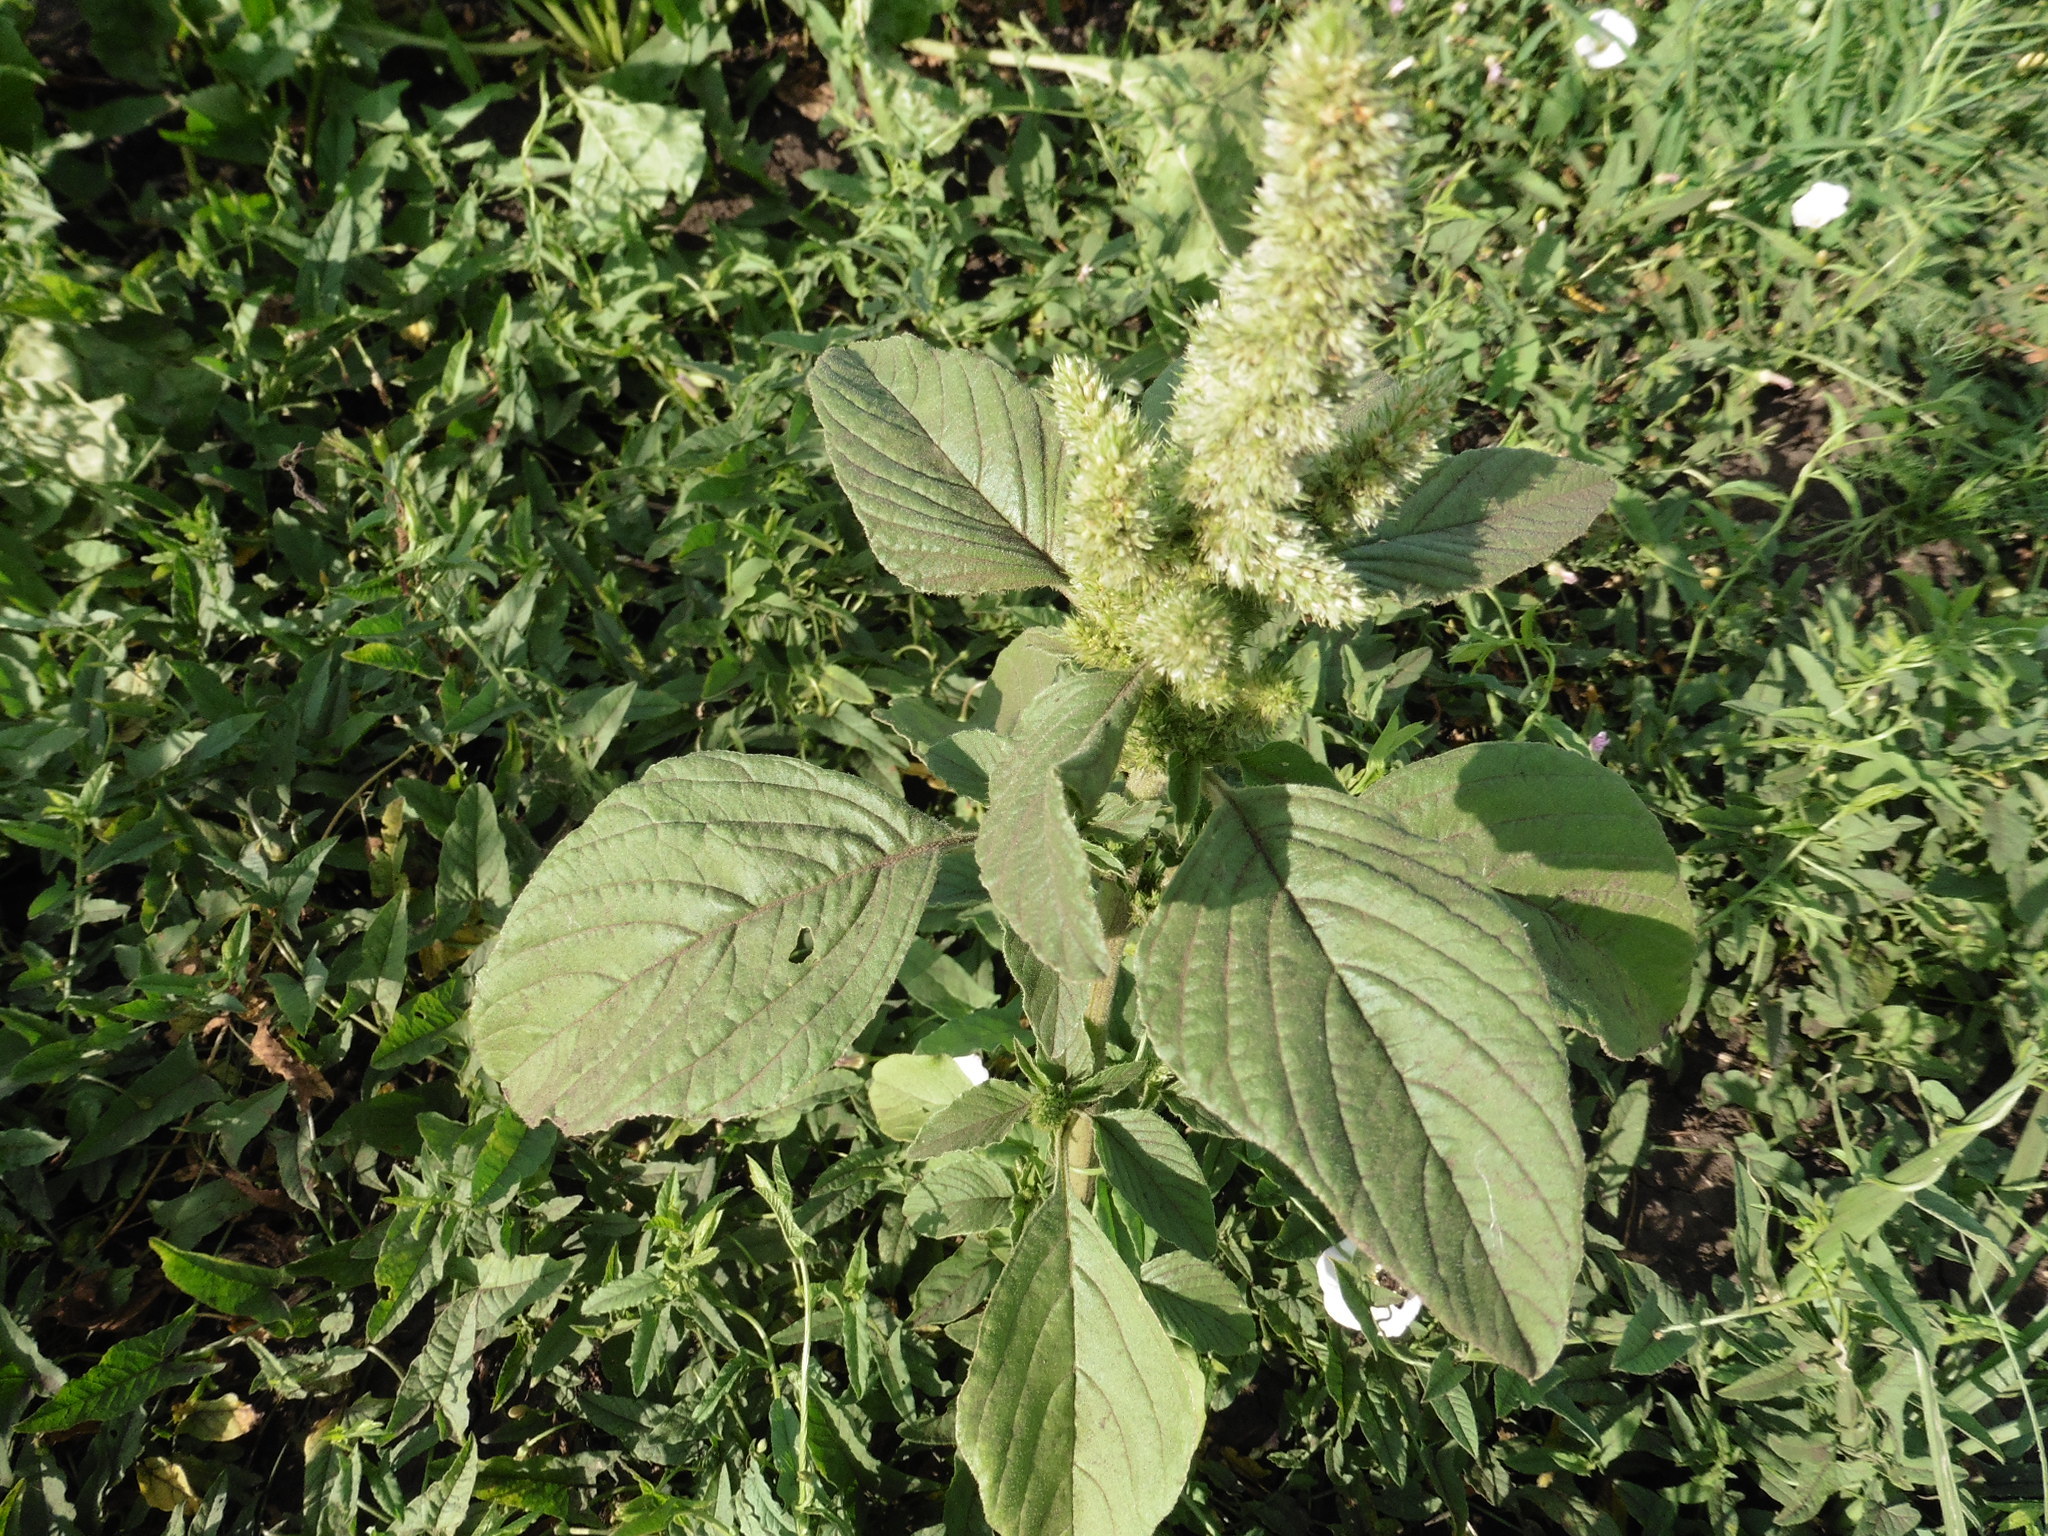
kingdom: Plantae
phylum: Tracheophyta
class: Magnoliopsida
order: Caryophyllales
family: Amaranthaceae
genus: Amaranthus
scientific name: Amaranthus retroflexus
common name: Redroot amaranth
